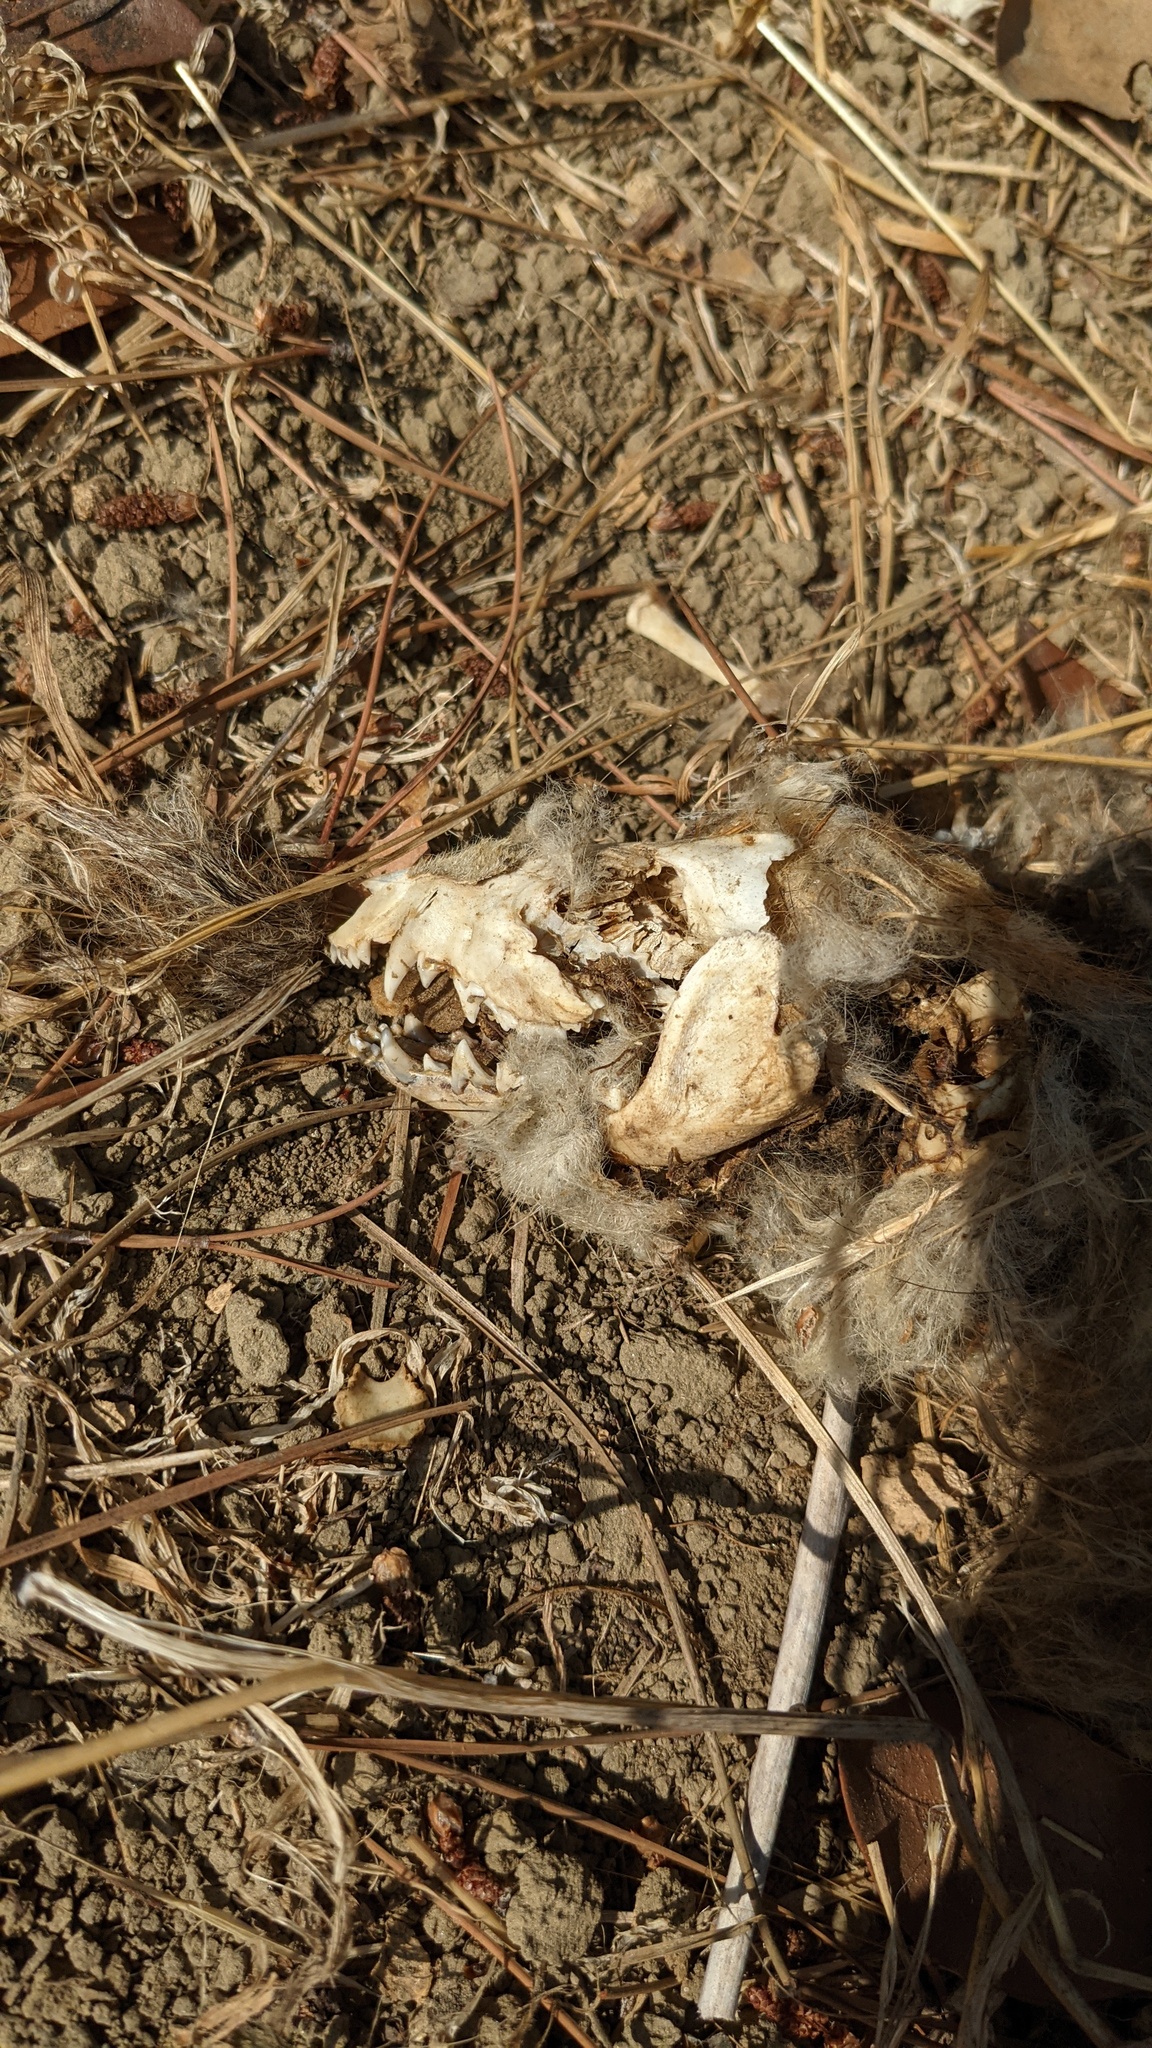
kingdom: Animalia
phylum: Chordata
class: Mammalia
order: Didelphimorphia
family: Didelphidae
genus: Didelphis
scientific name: Didelphis virginiana
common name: Virginia opossum
